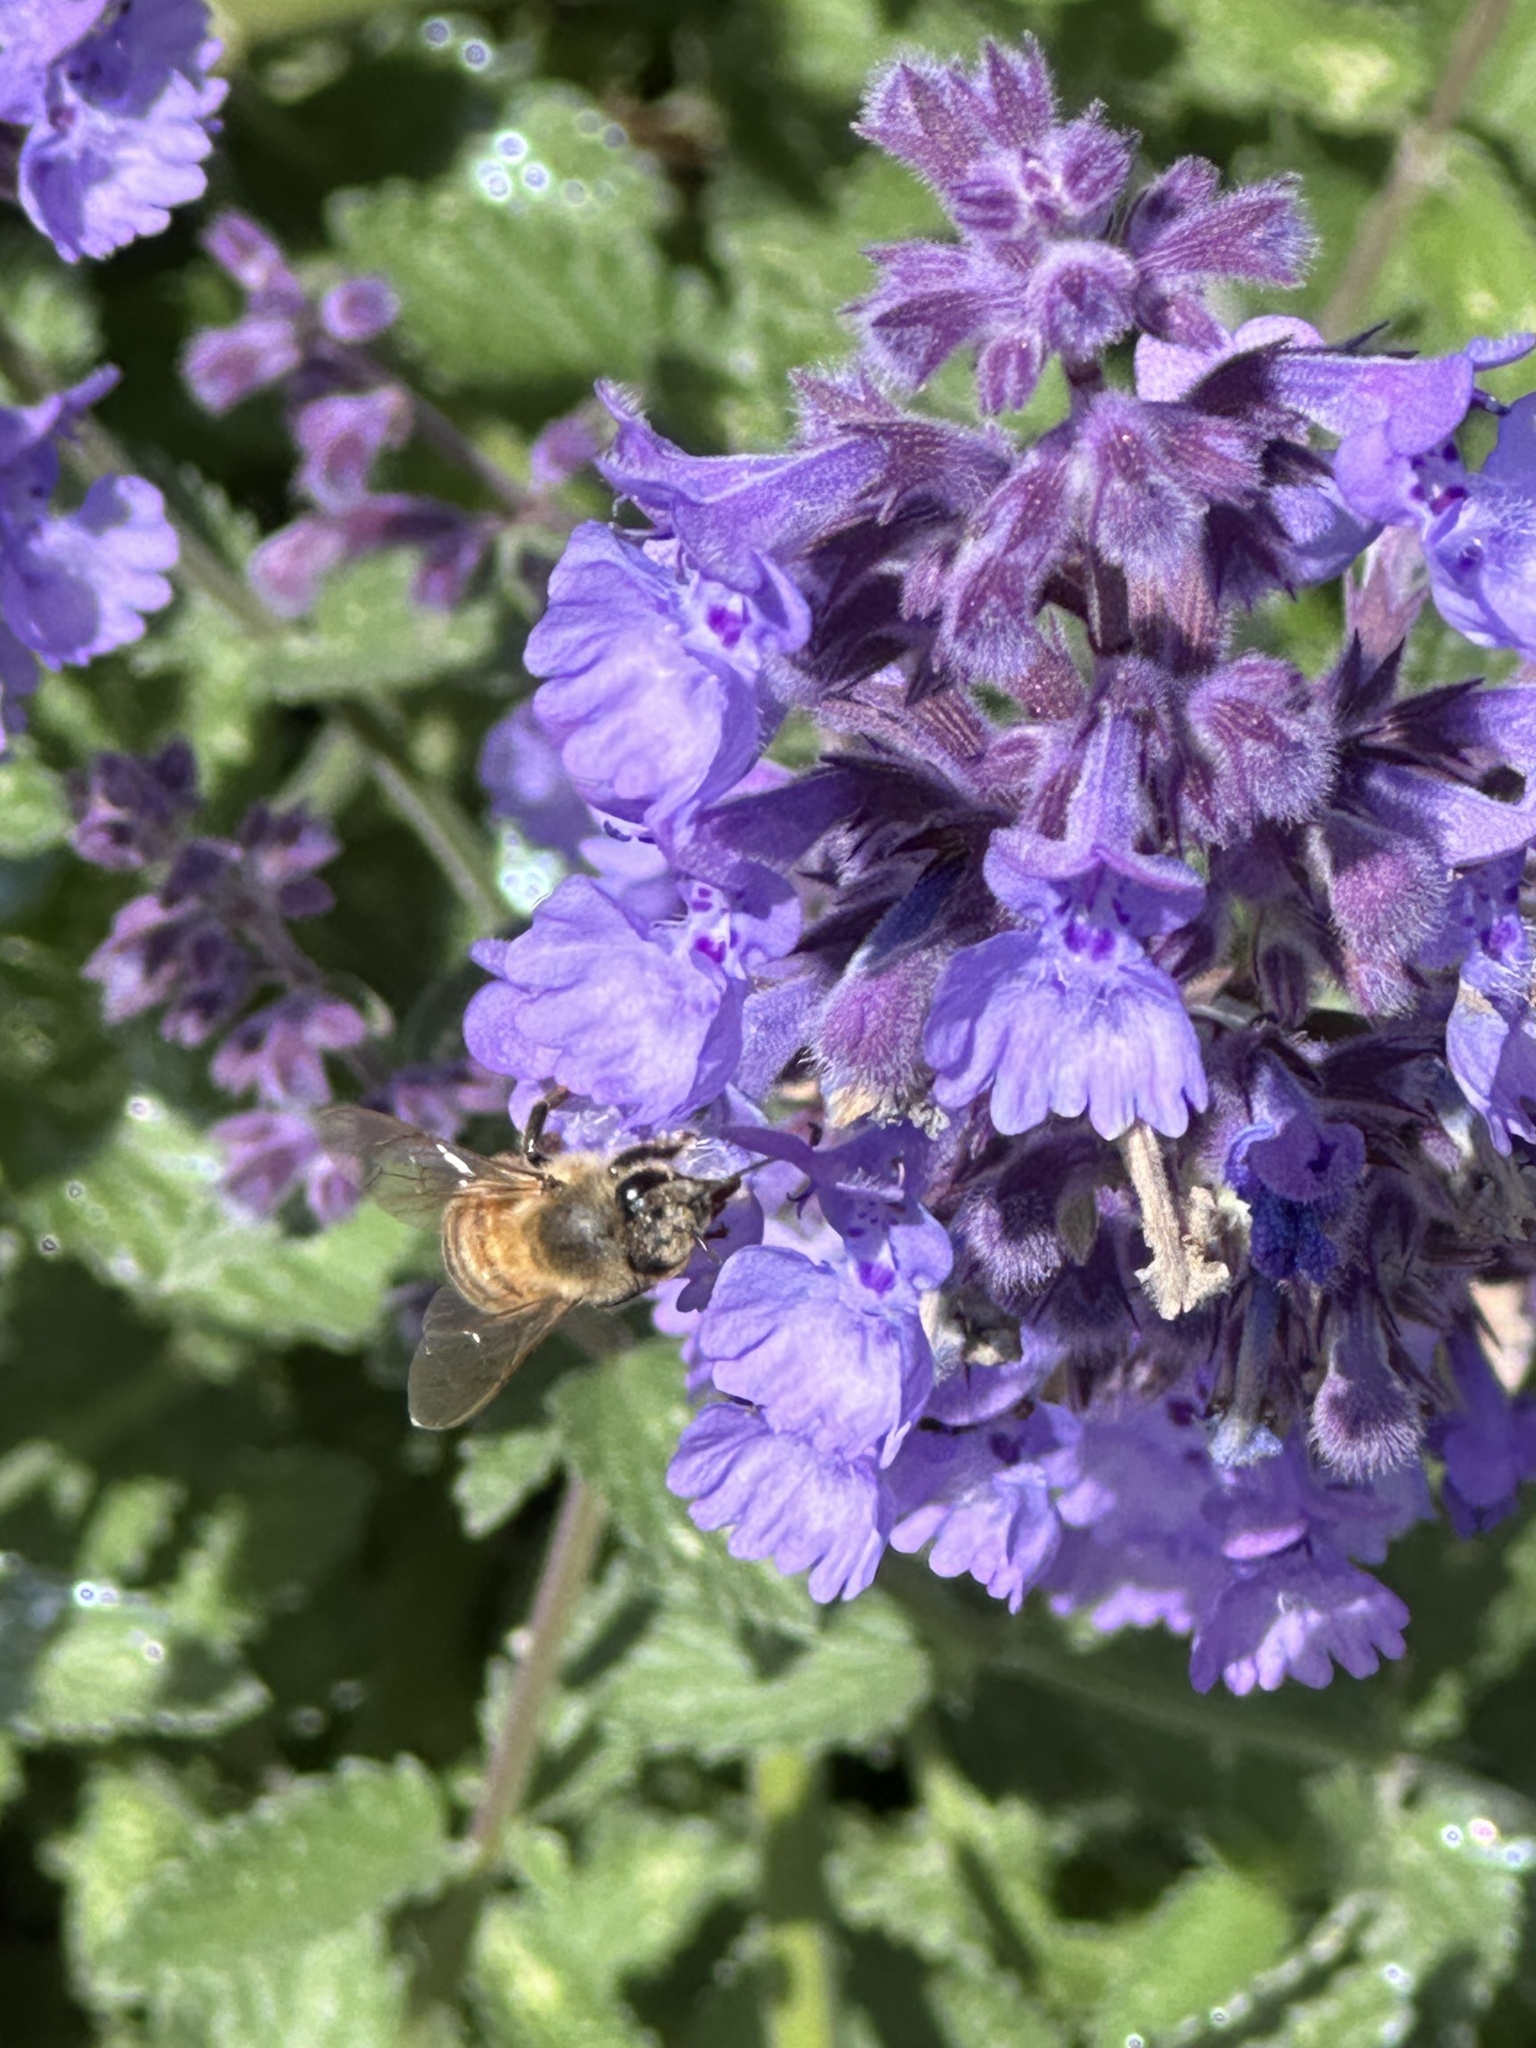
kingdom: Animalia
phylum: Arthropoda
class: Insecta
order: Hymenoptera
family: Apidae
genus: Apis
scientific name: Apis mellifera
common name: Honey bee
